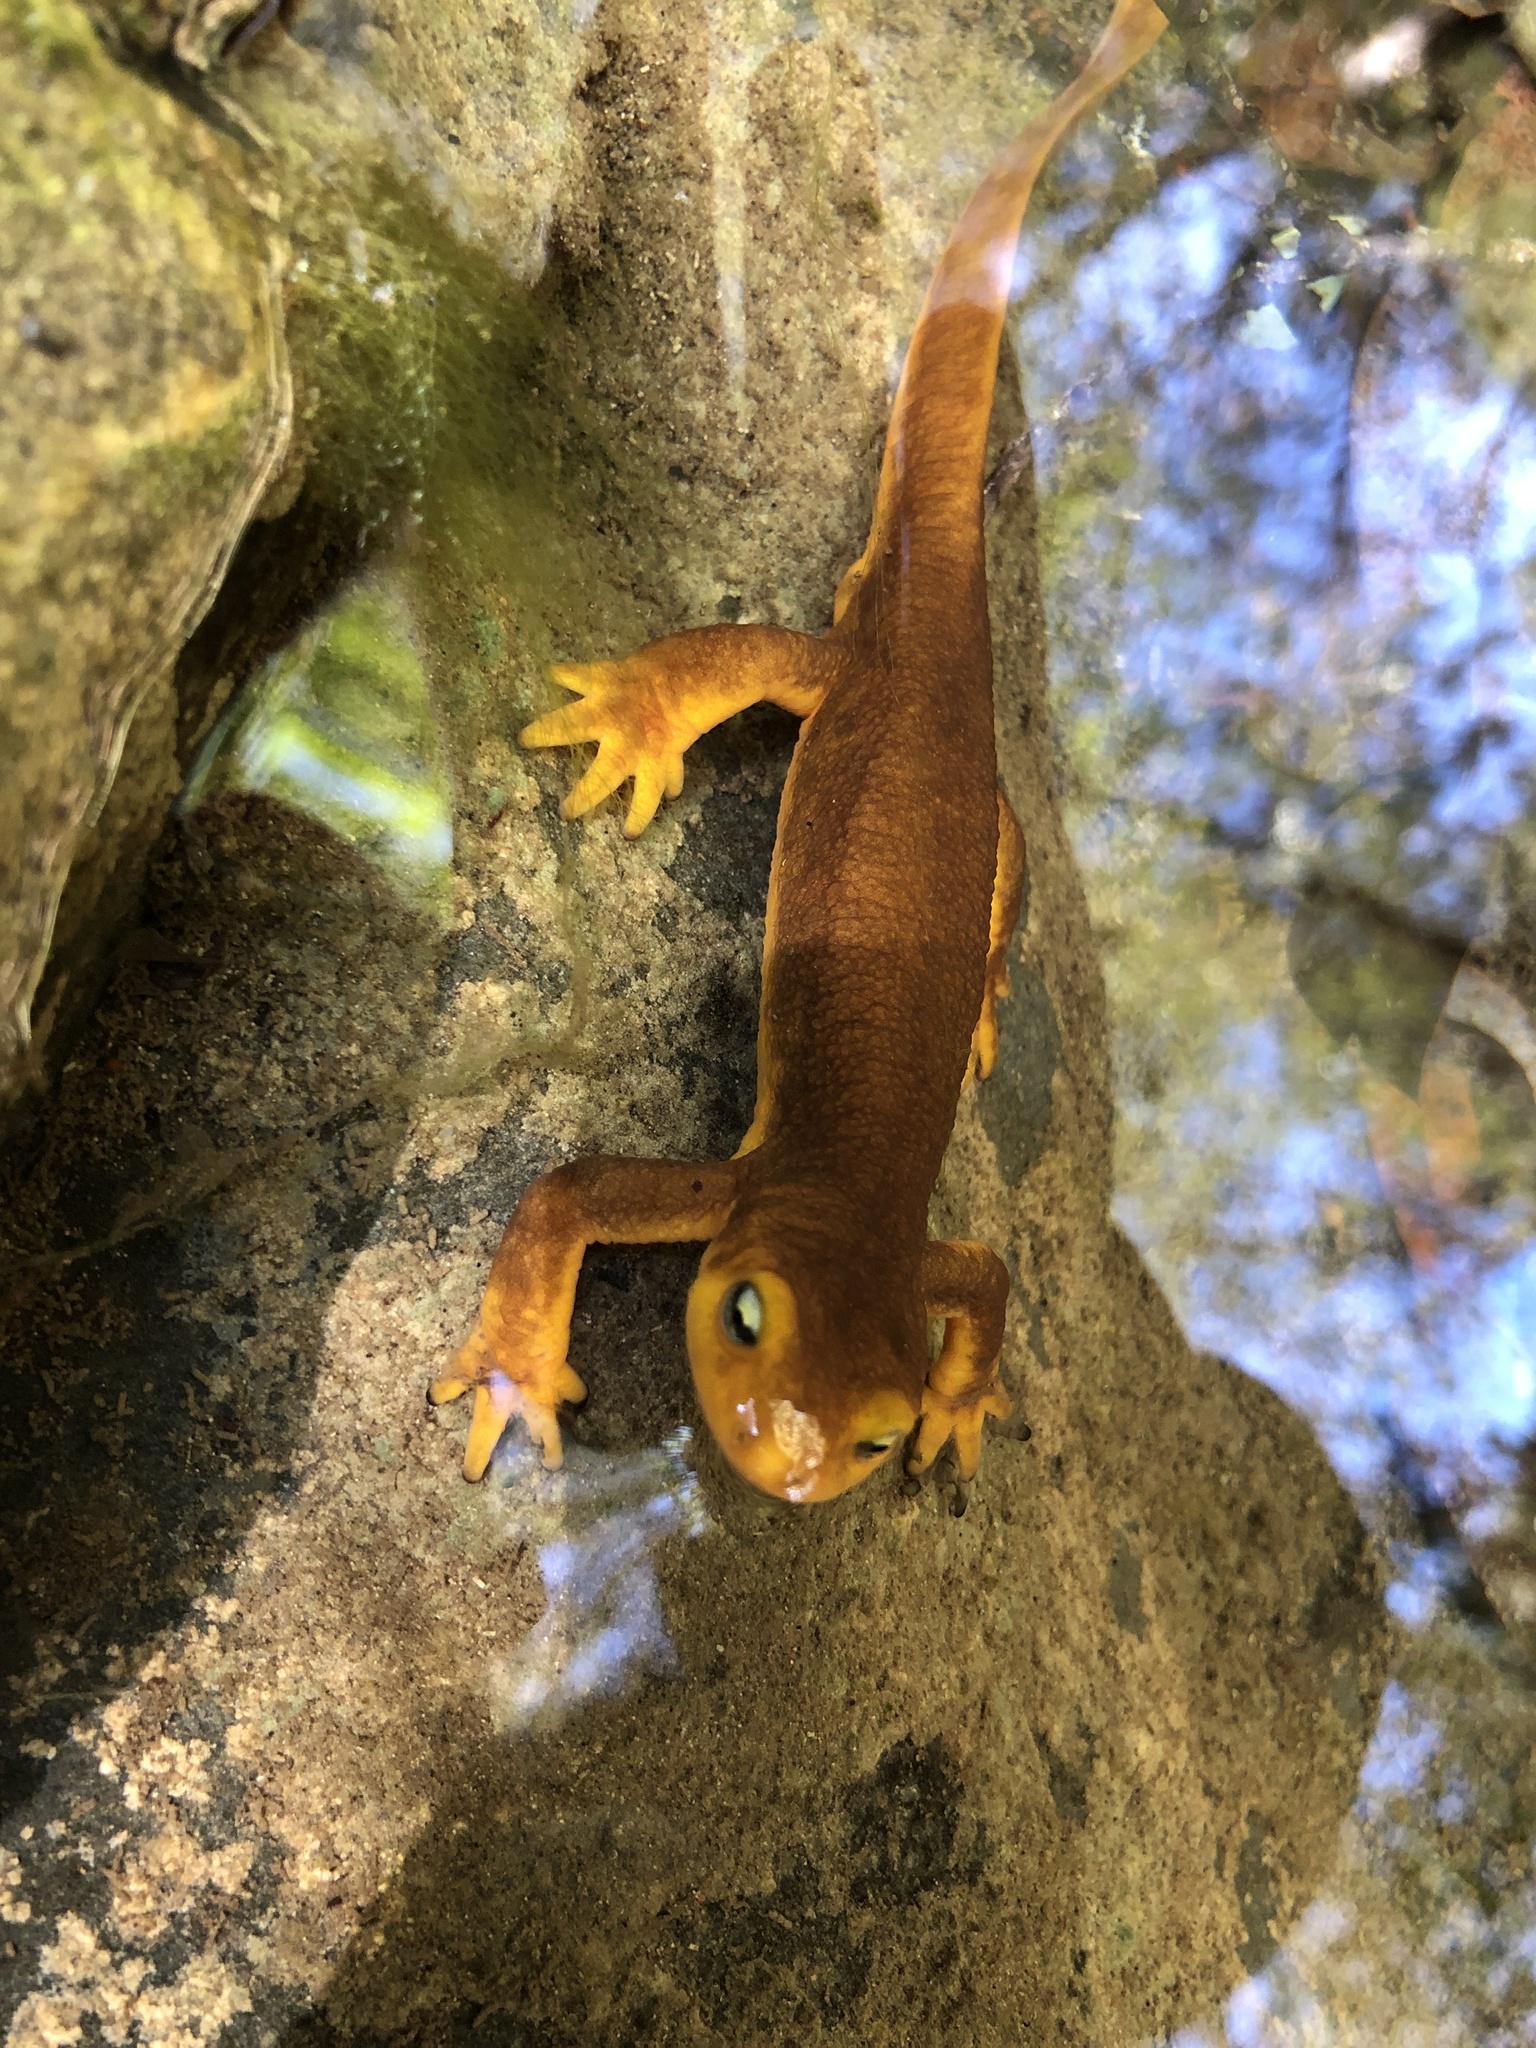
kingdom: Animalia
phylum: Chordata
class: Amphibia
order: Caudata
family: Salamandridae
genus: Taricha
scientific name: Taricha torosa
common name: California newt
